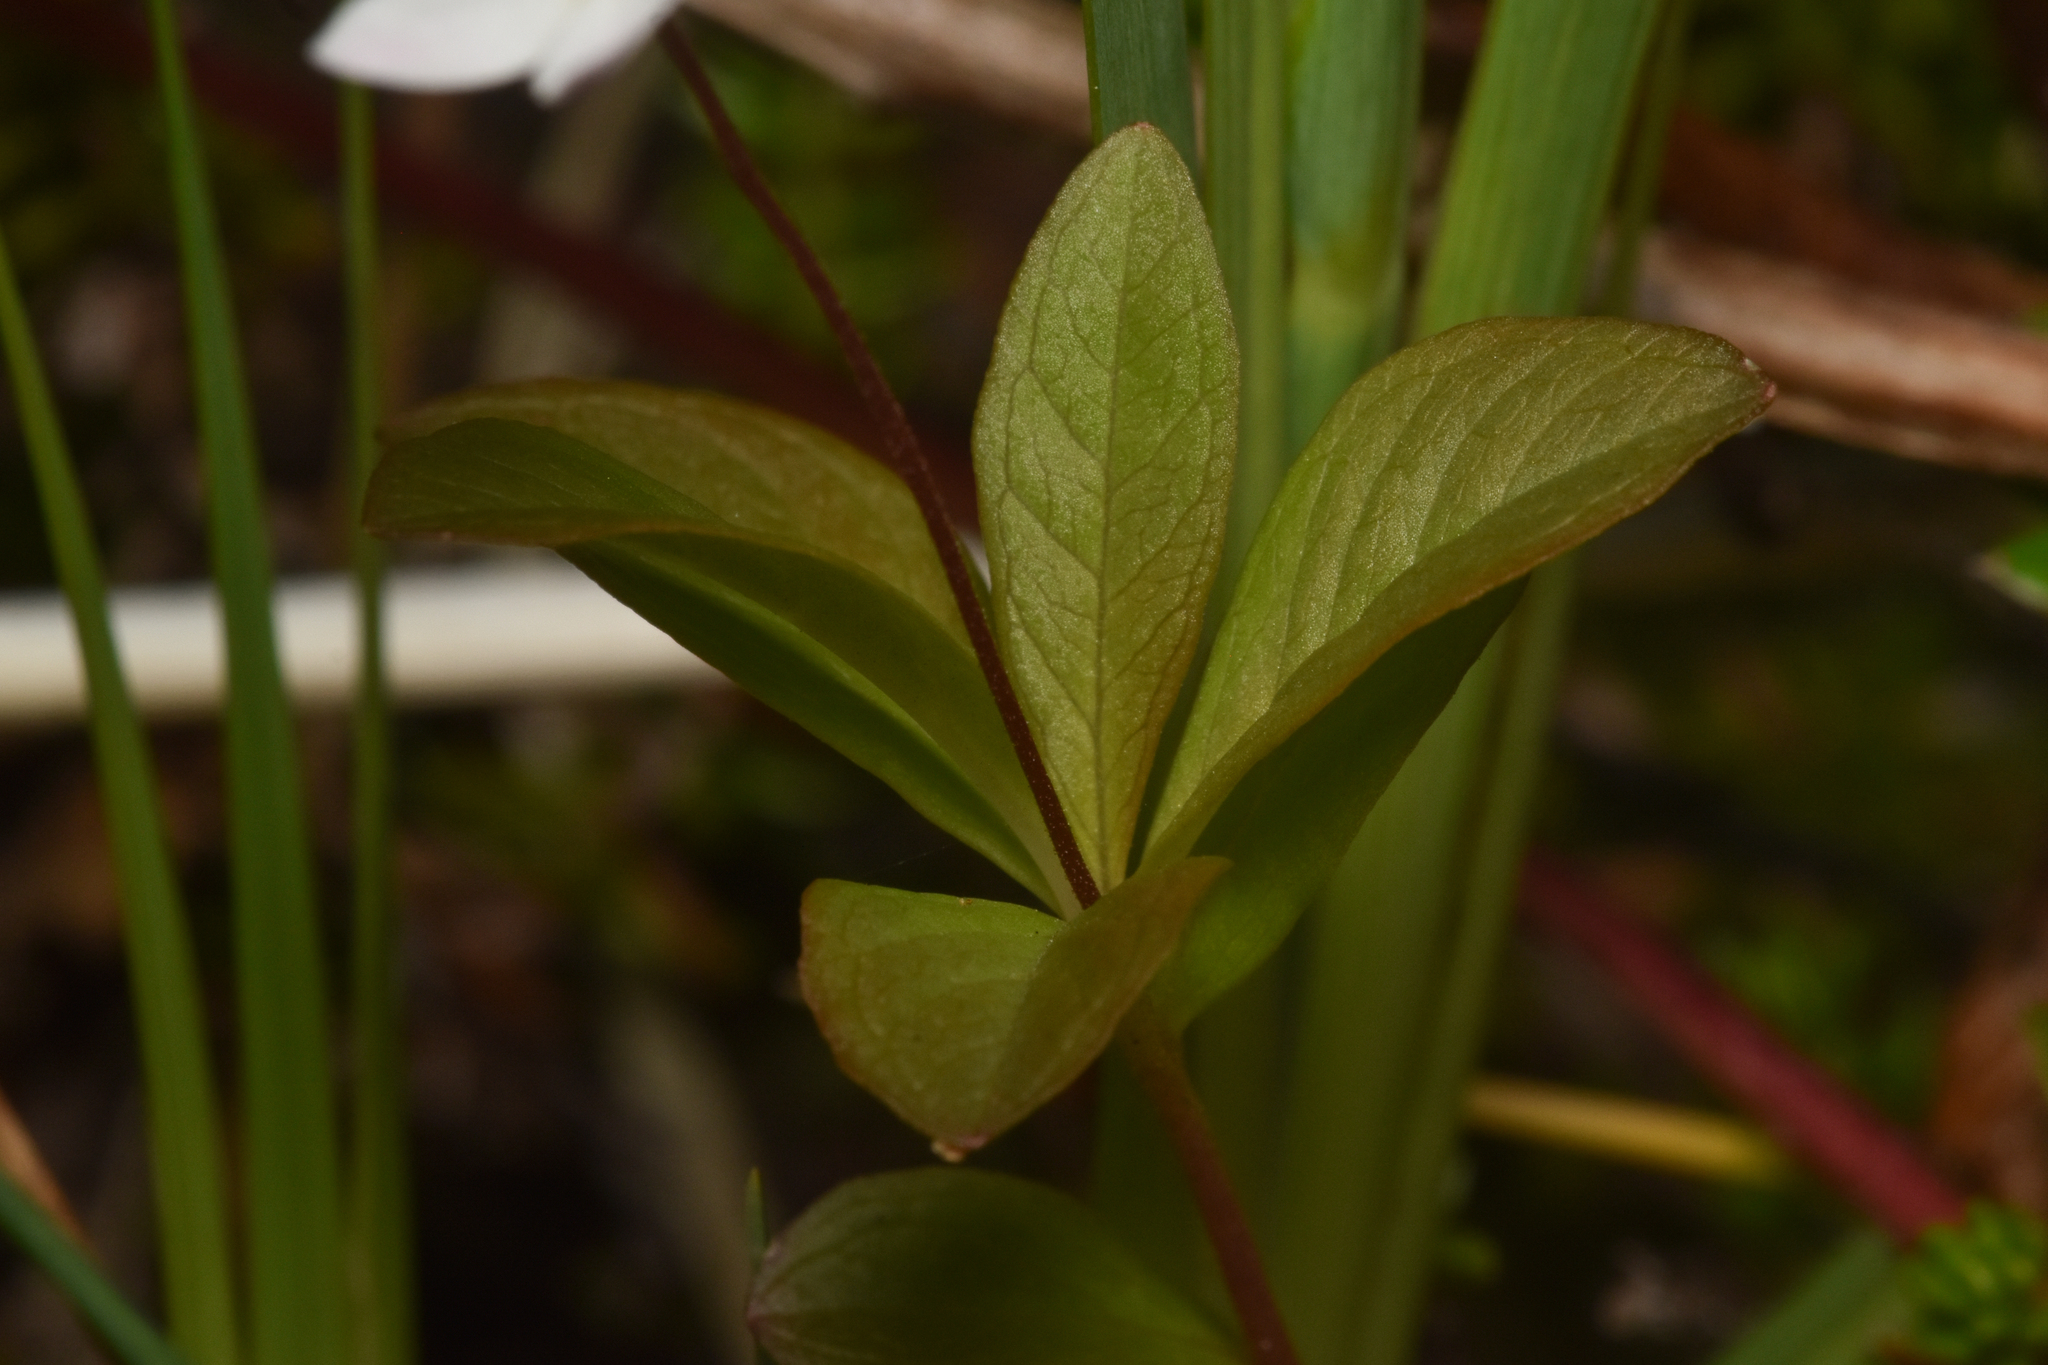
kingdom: Plantae
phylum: Tracheophyta
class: Magnoliopsida
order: Ericales
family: Primulaceae
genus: Lysimachia
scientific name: Lysimachia europaea
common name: Arctic starflower
